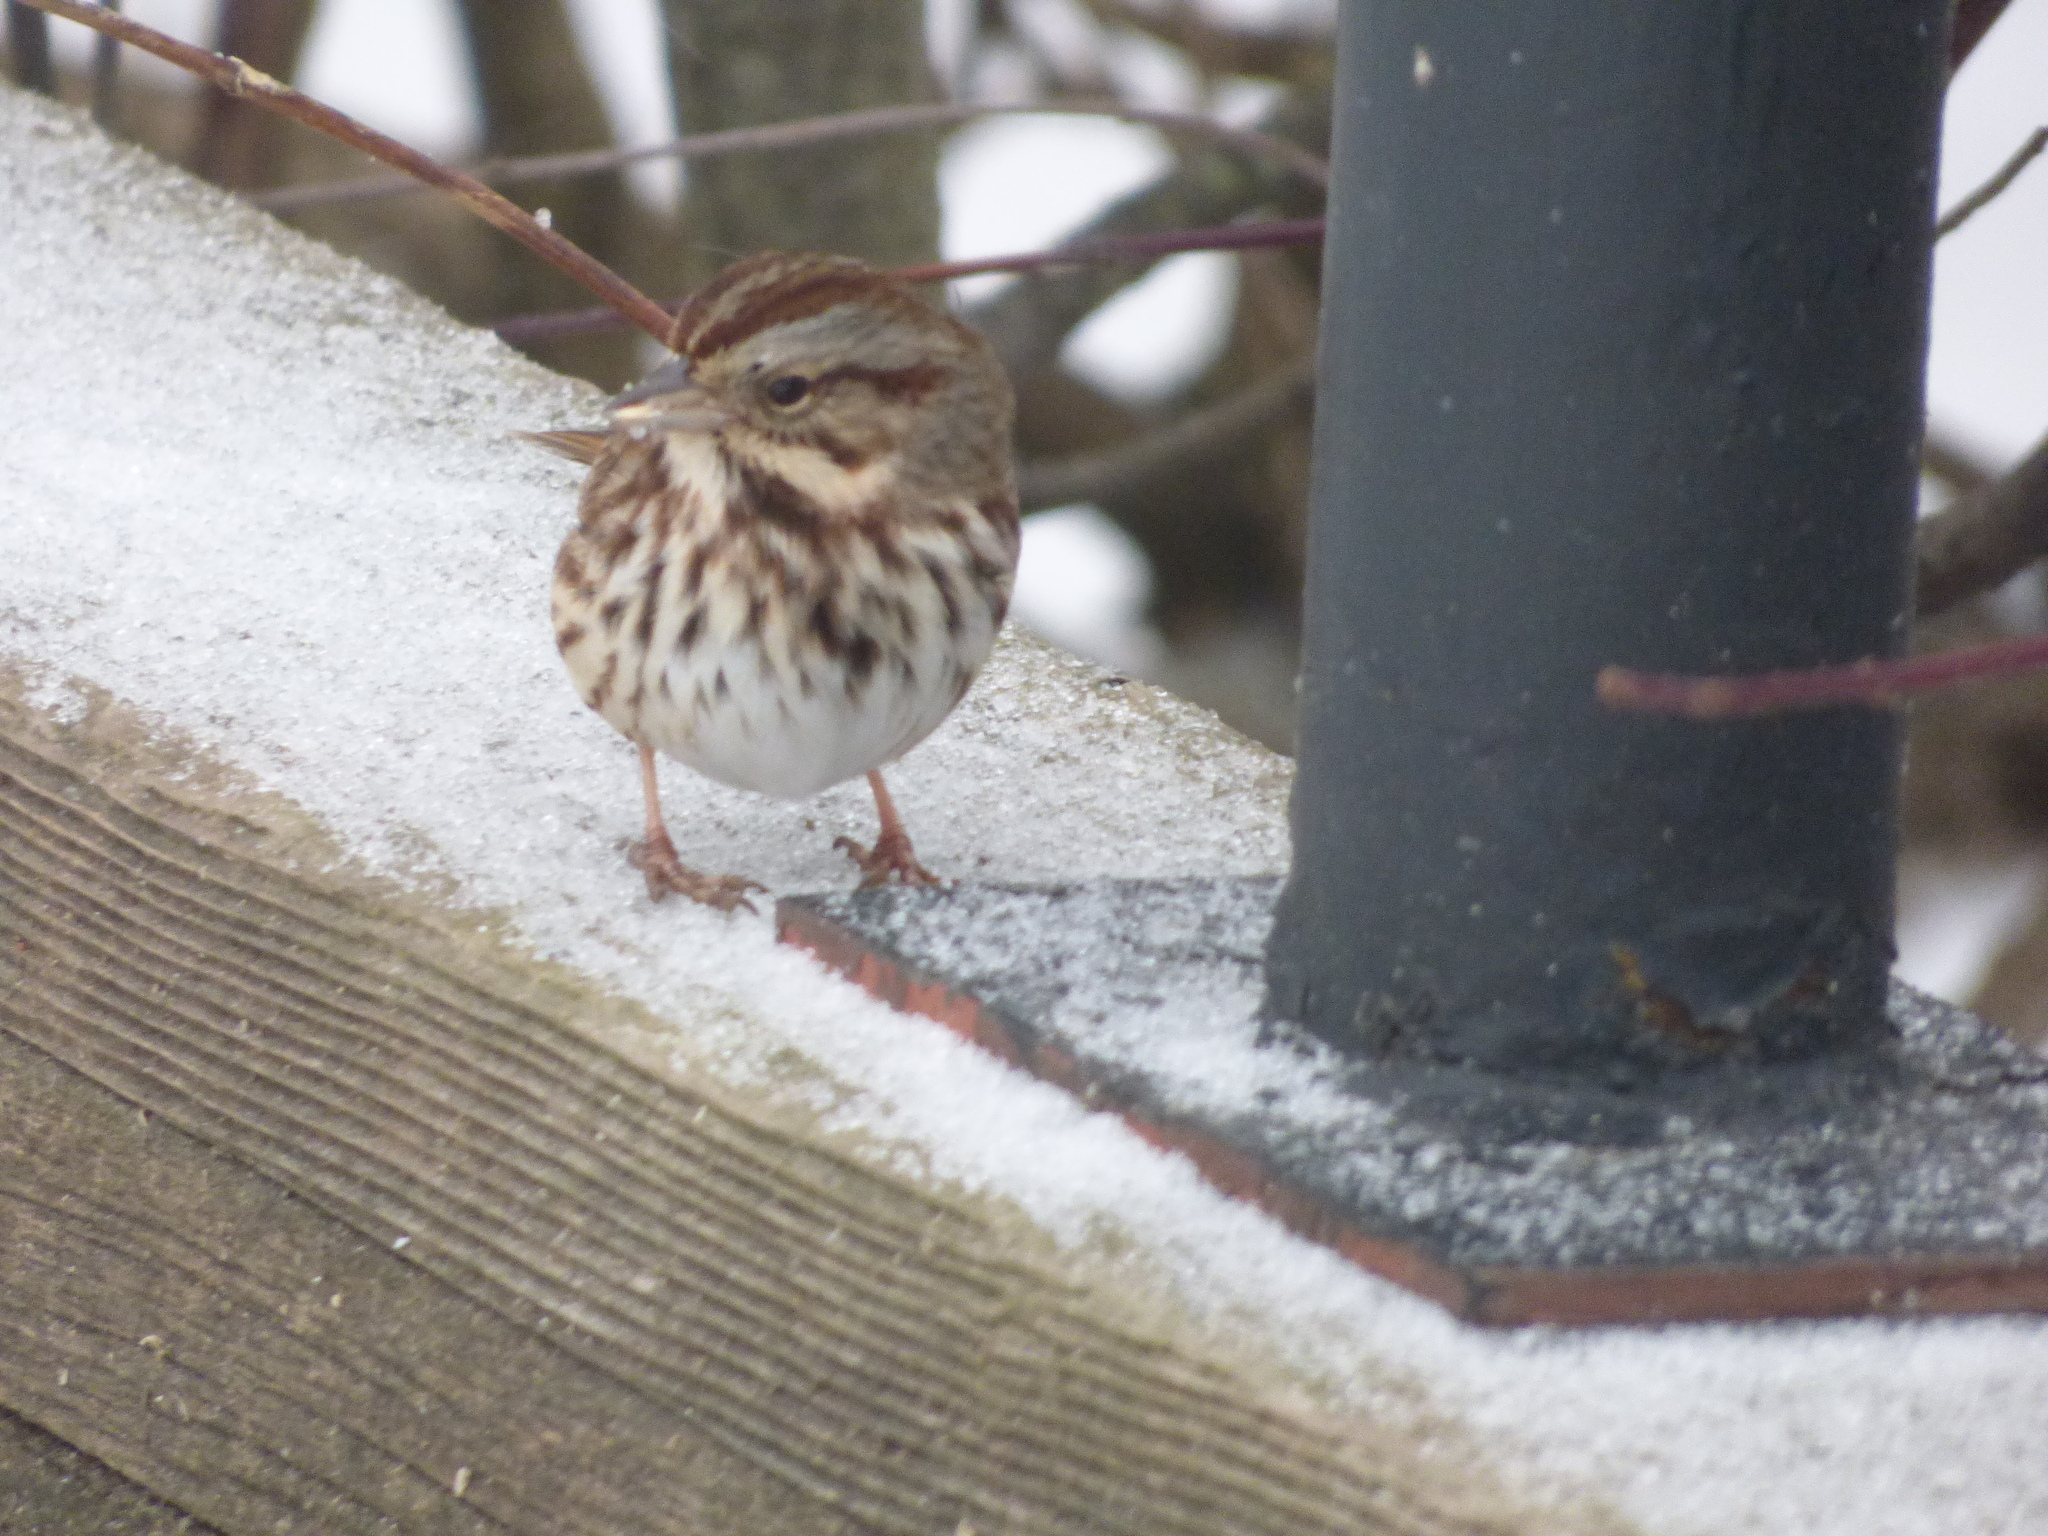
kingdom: Animalia
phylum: Chordata
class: Aves
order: Passeriformes
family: Passerellidae
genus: Melospiza
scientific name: Melospiza melodia
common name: Song sparrow
